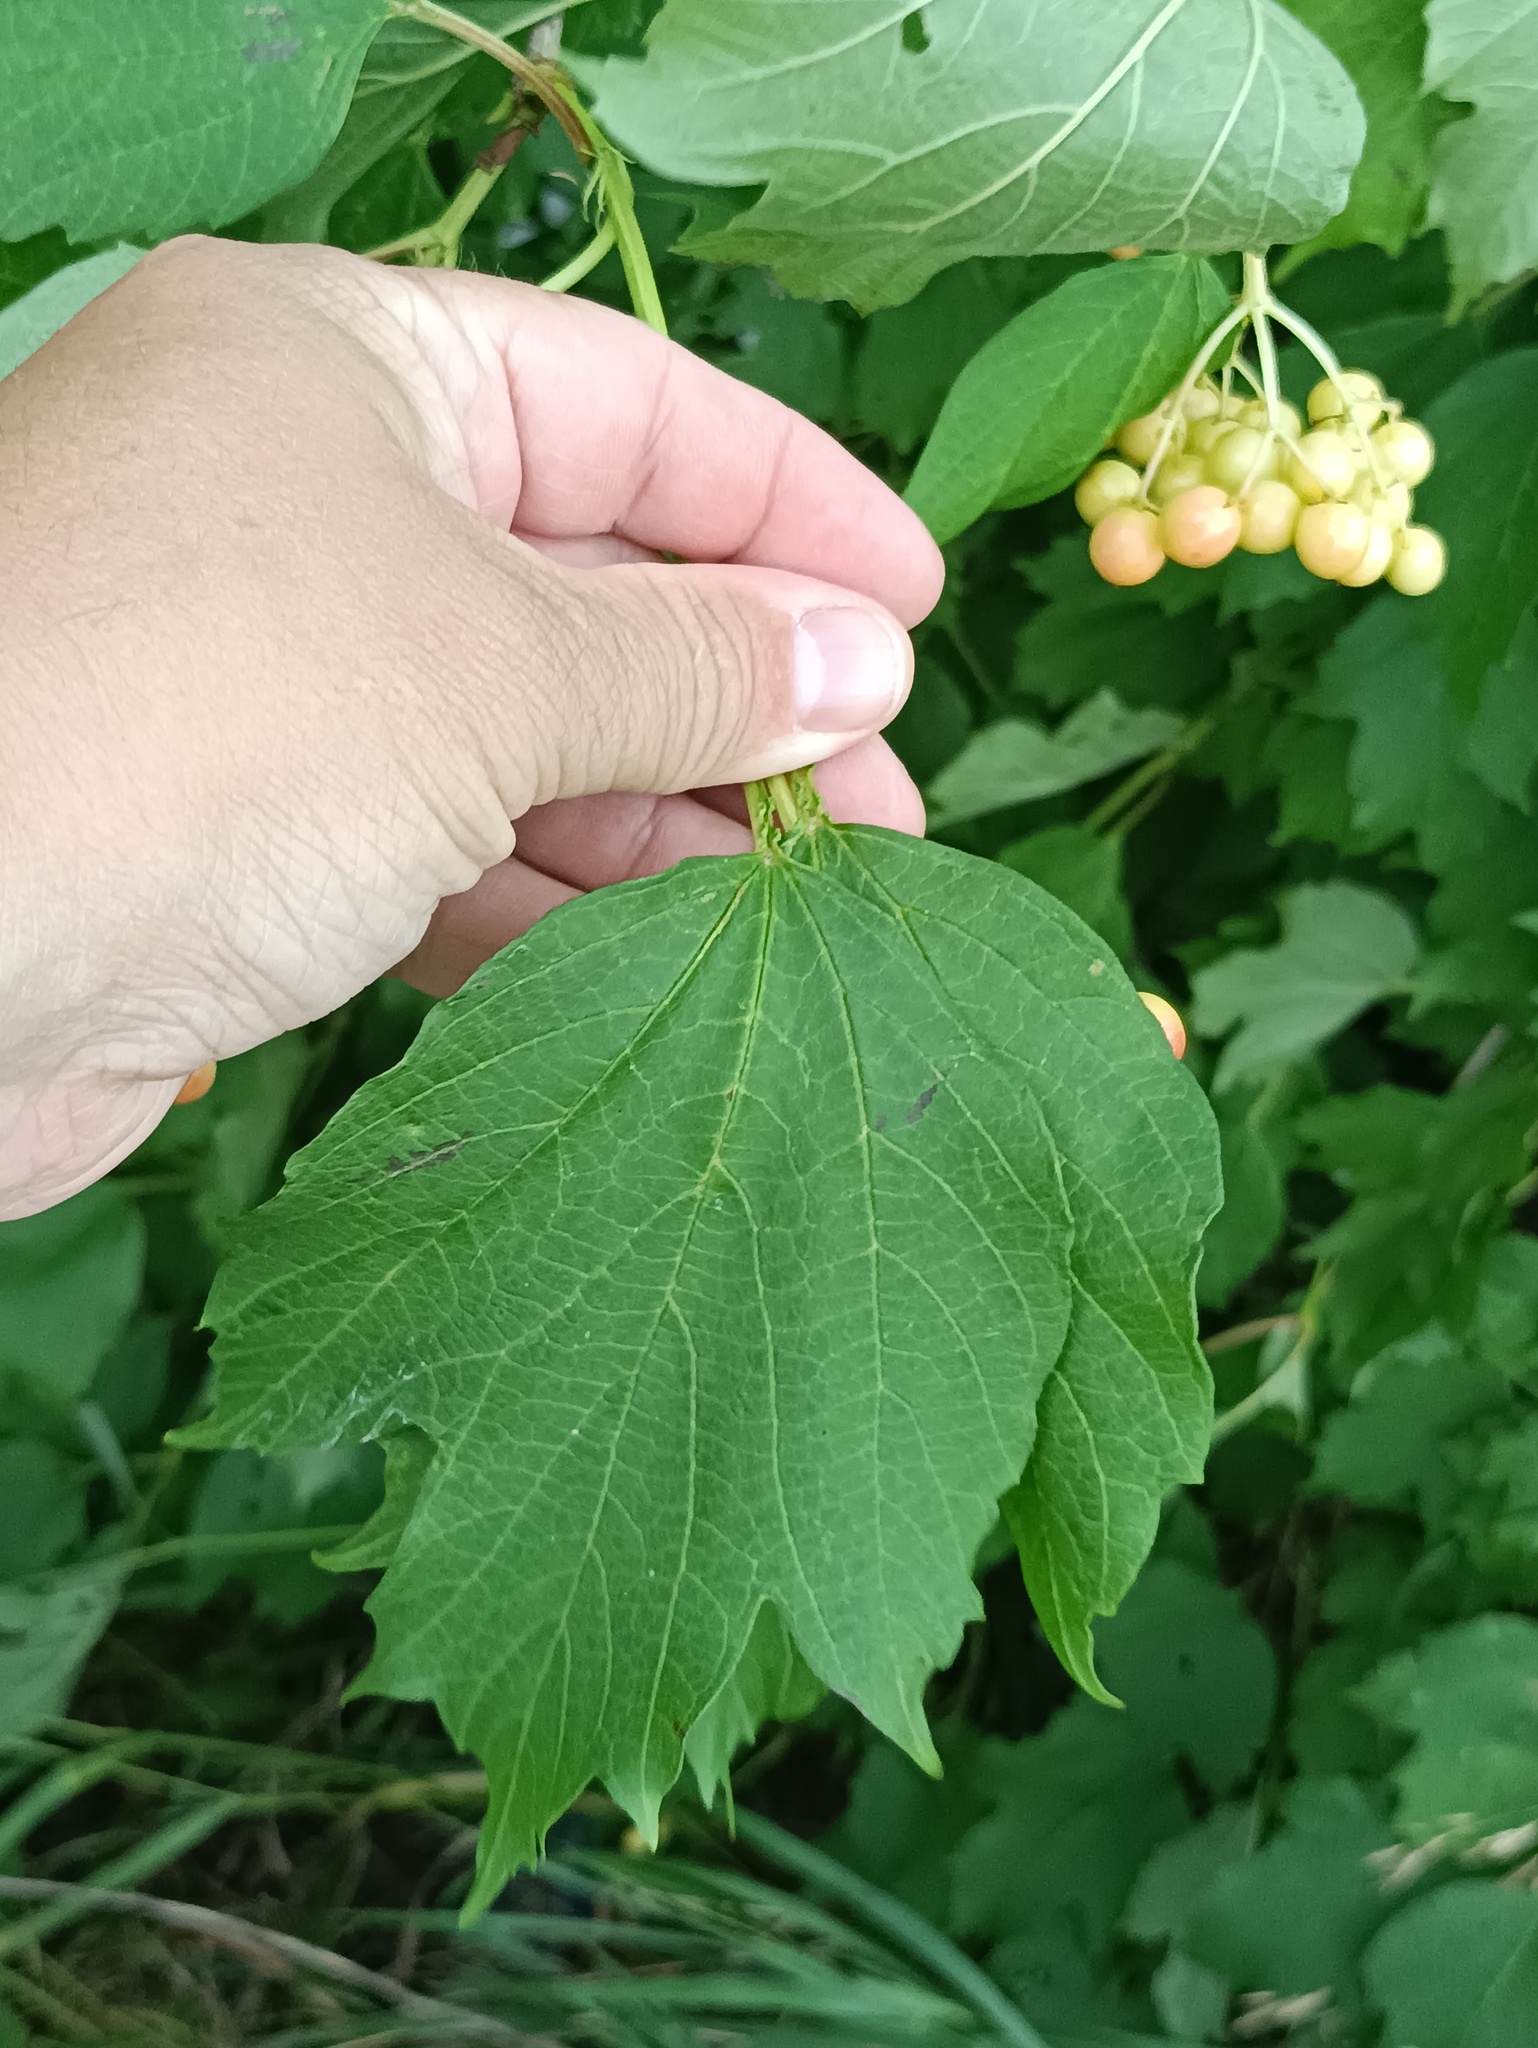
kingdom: Plantae
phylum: Tracheophyta
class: Magnoliopsida
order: Dipsacales
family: Viburnaceae
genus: Viburnum
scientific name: Viburnum opulus
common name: Guelder-rose
